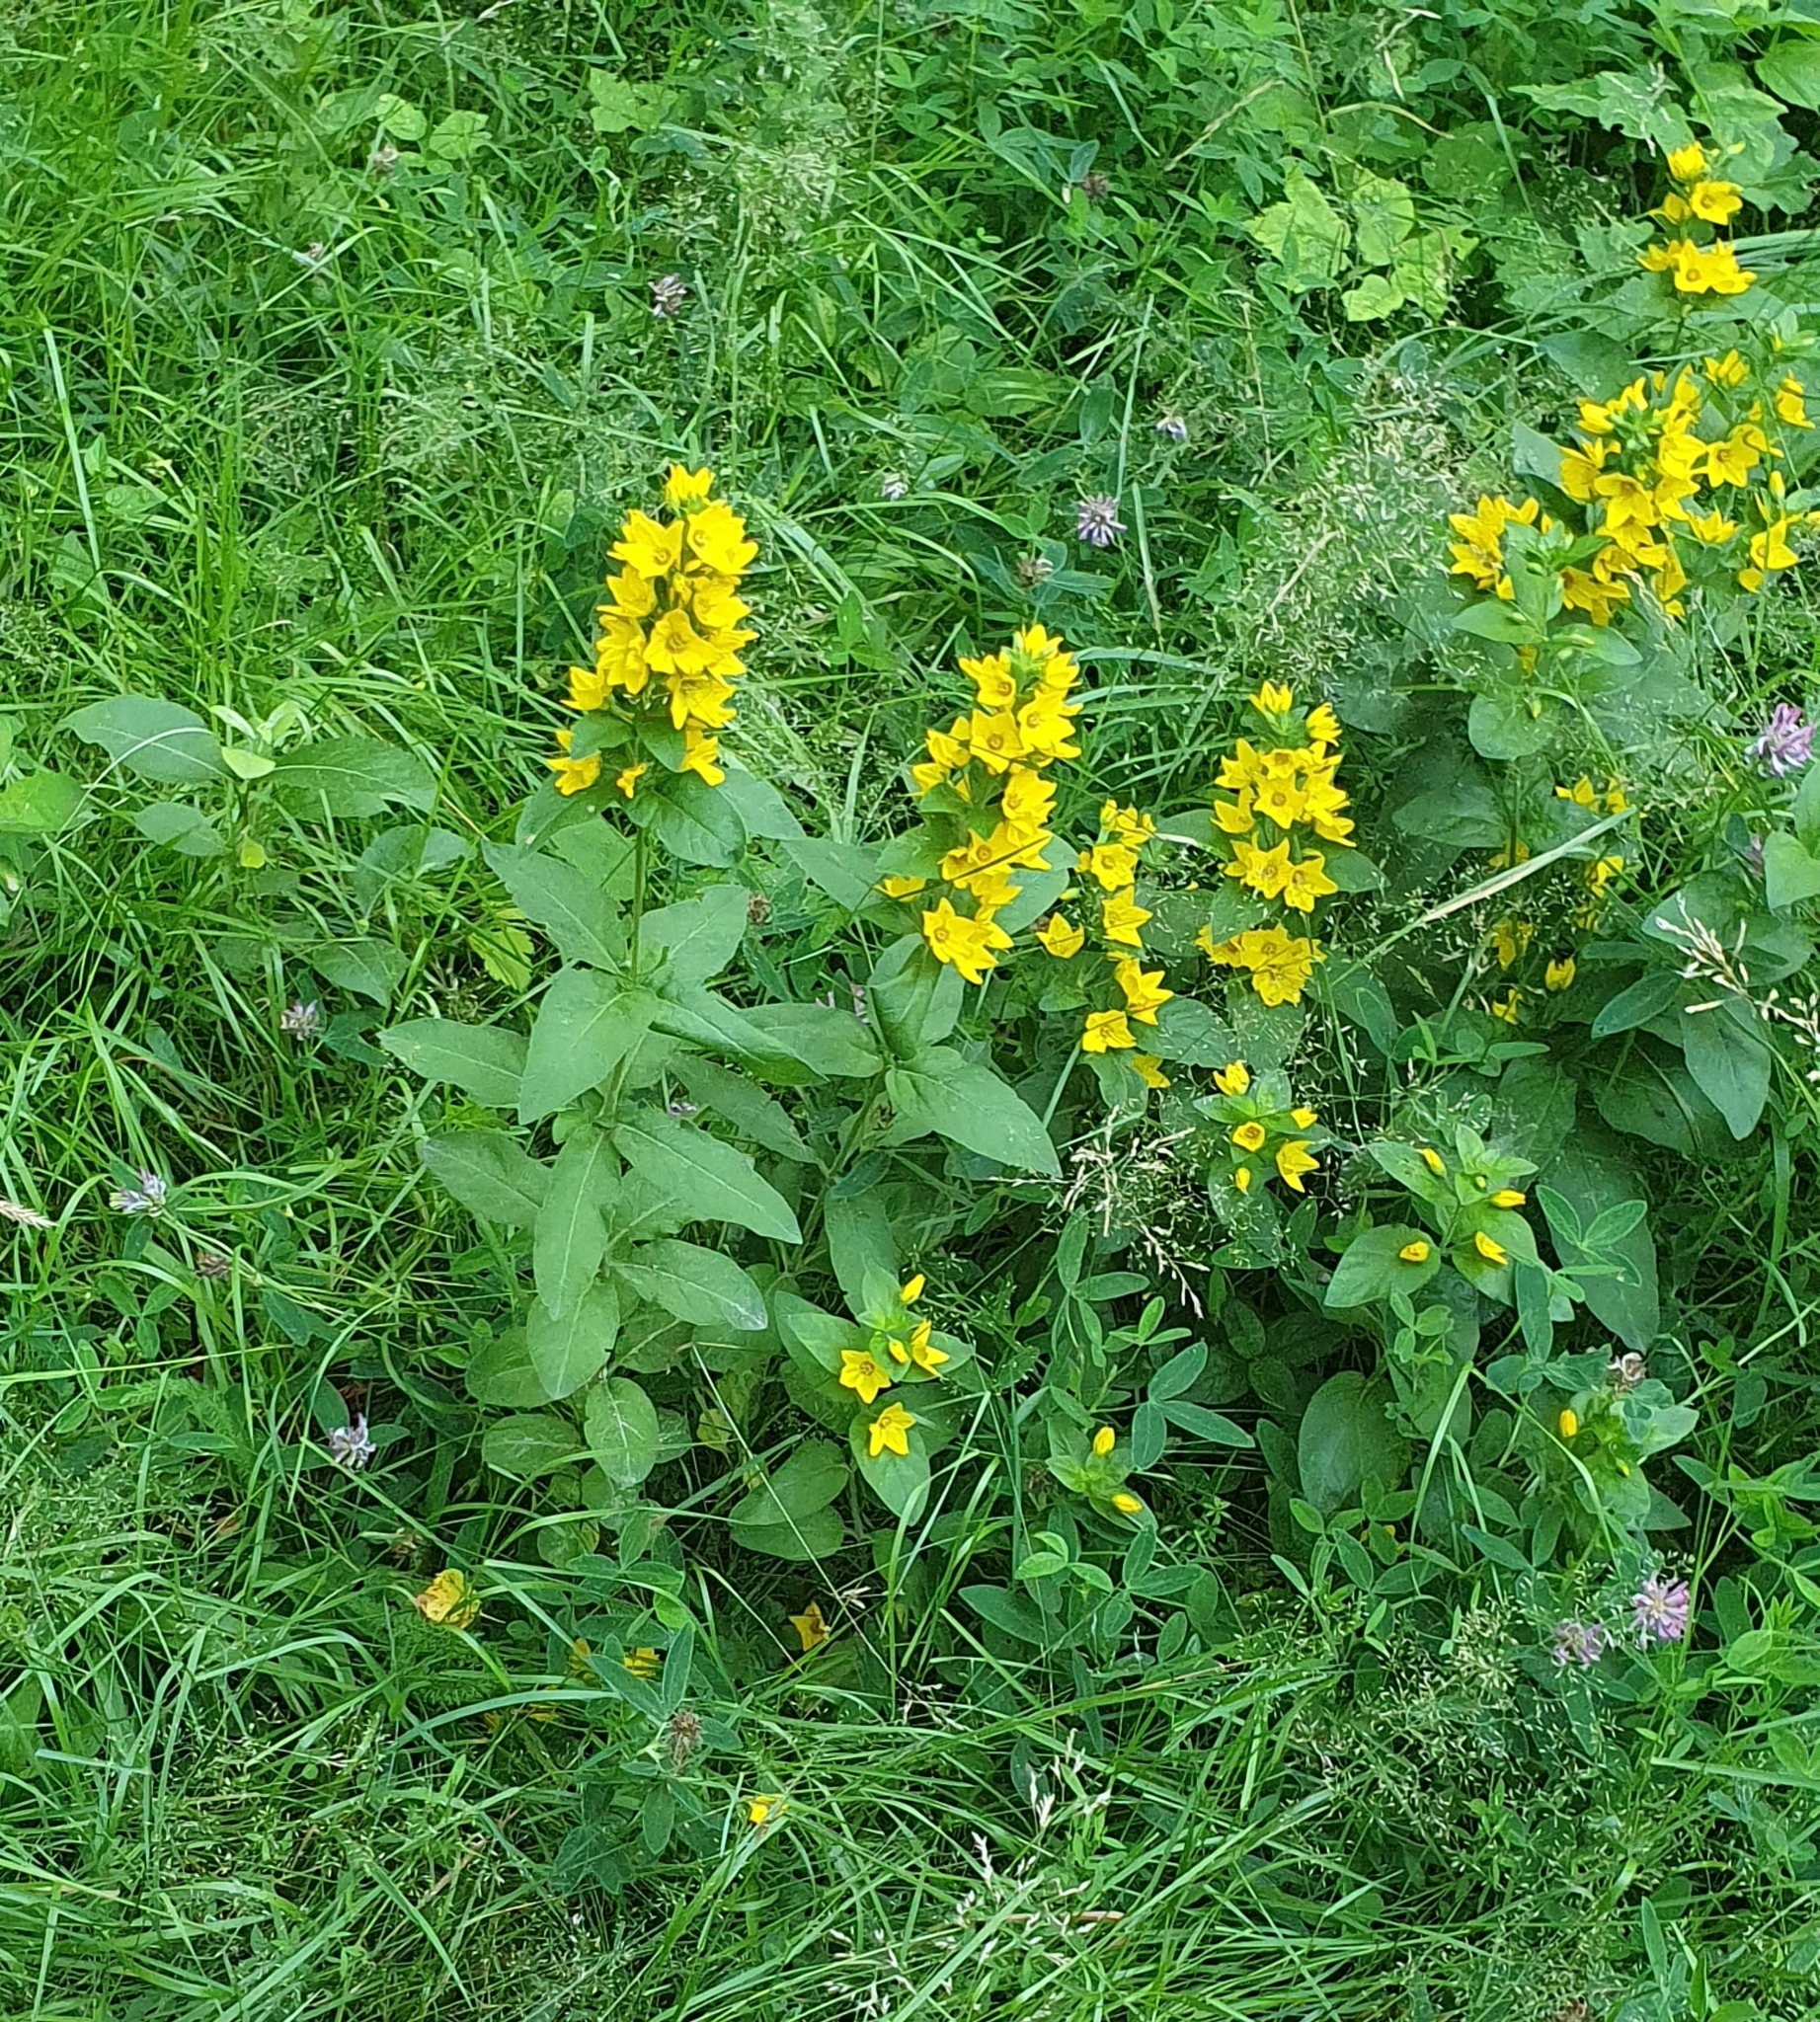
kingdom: Plantae
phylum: Tracheophyta
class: Magnoliopsida
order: Ericales
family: Primulaceae
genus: Lysimachia
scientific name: Lysimachia punctata
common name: Dotted loosestrife
